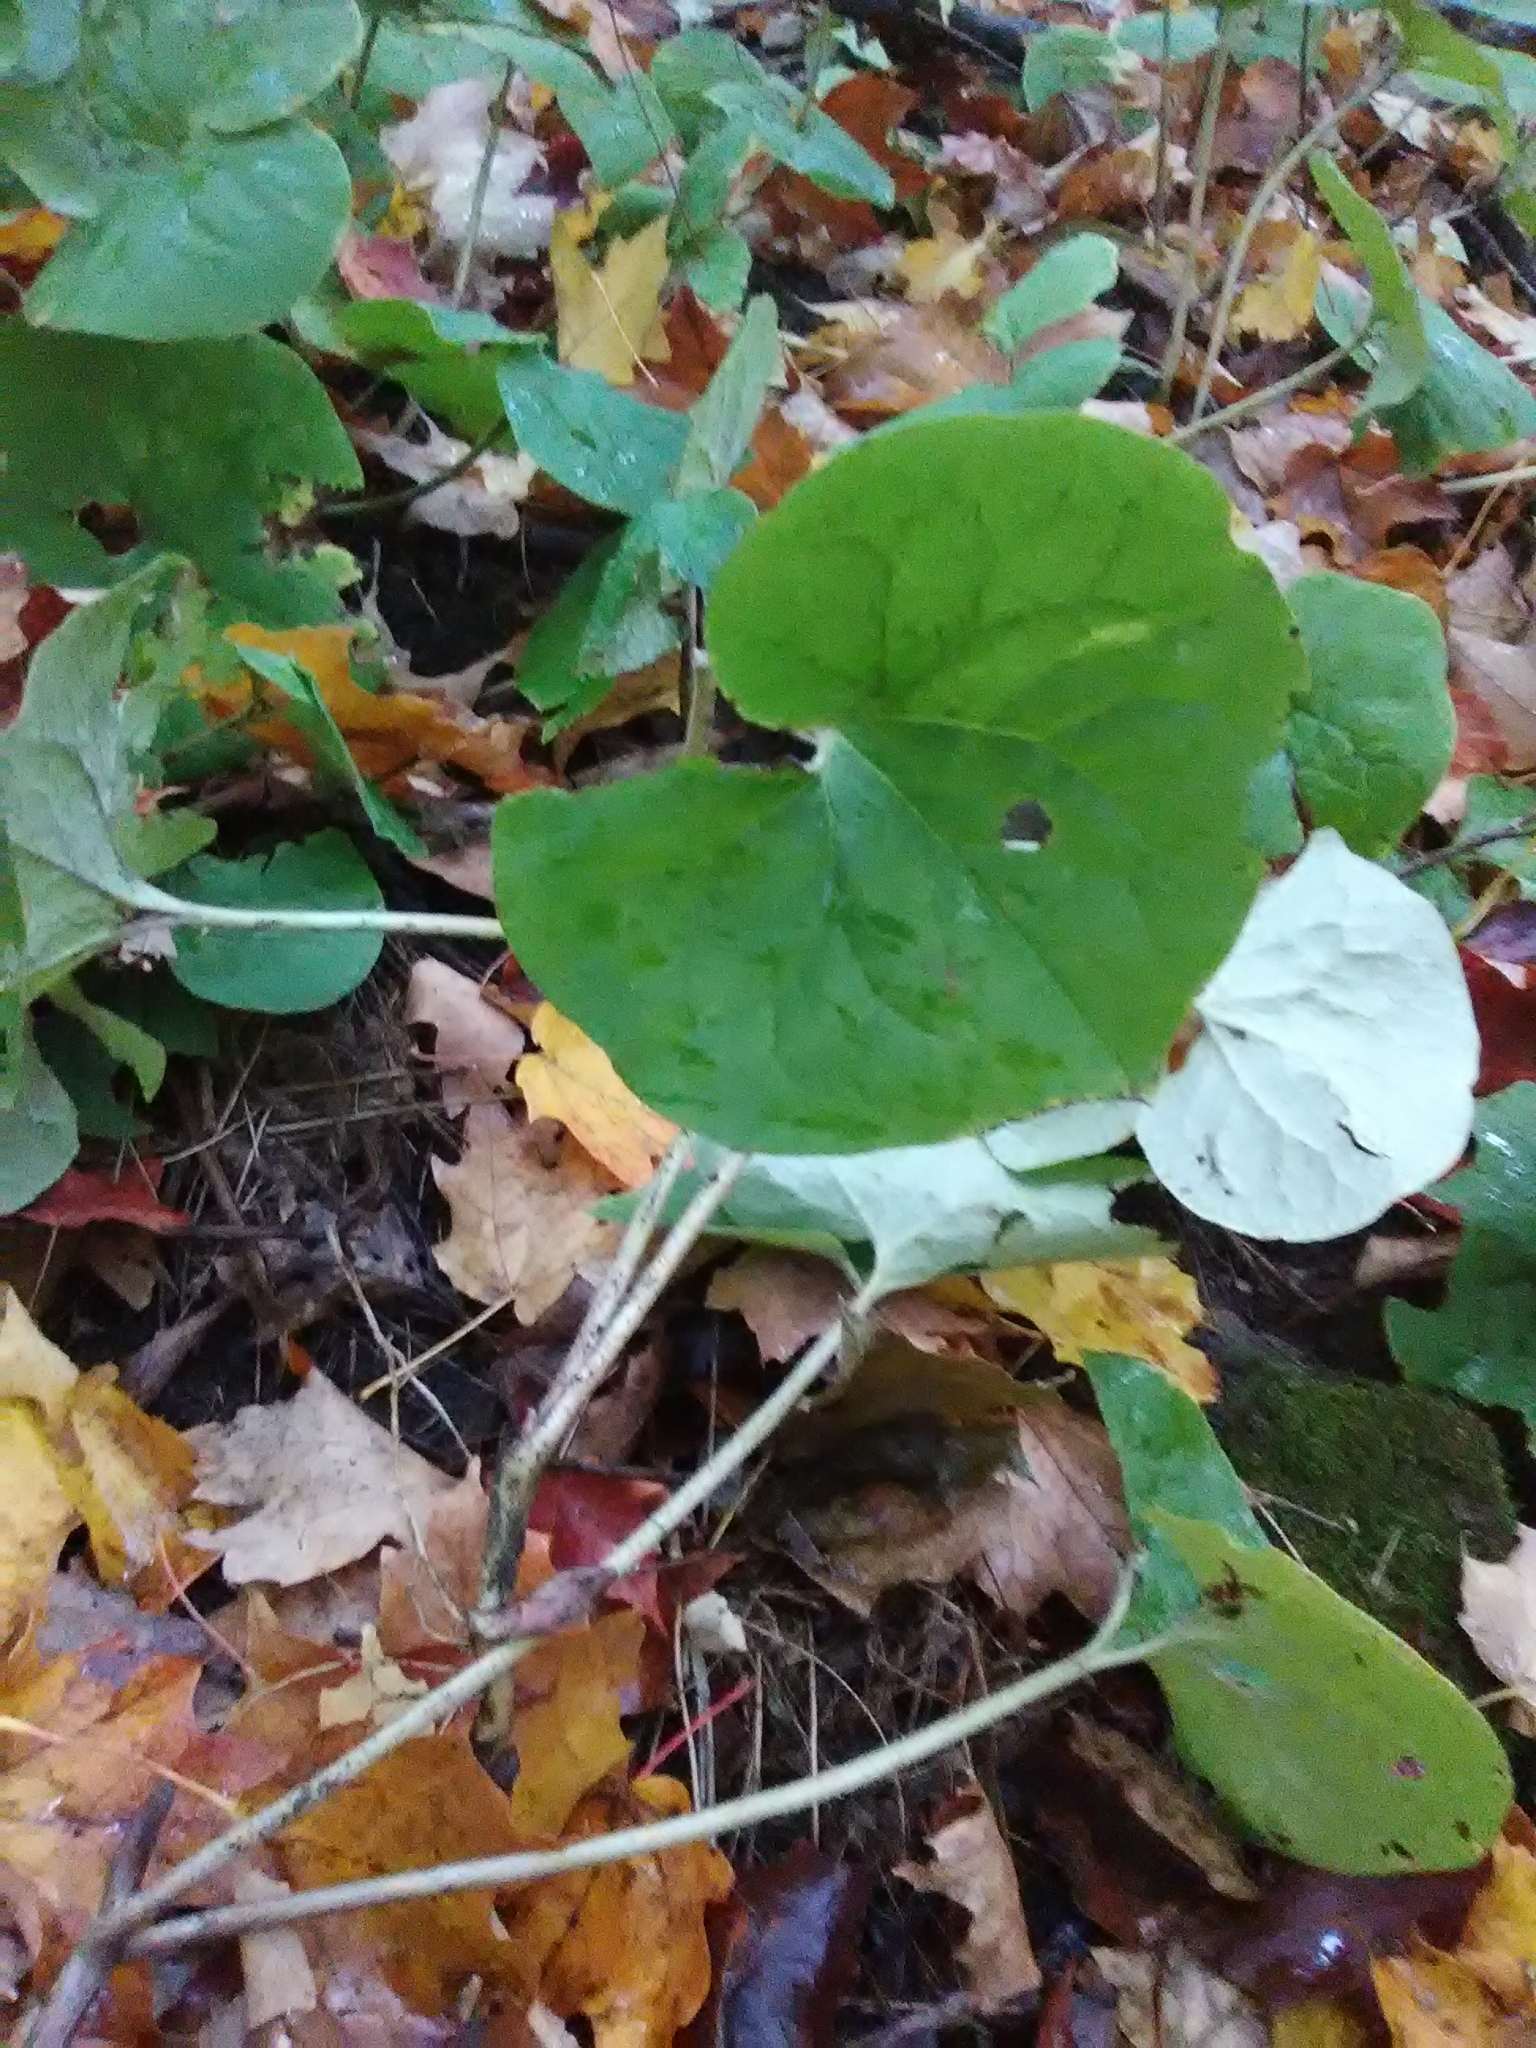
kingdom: Plantae
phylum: Tracheophyta
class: Magnoliopsida
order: Piperales
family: Aristolochiaceae
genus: Asarum
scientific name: Asarum canadense
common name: Wild ginger
